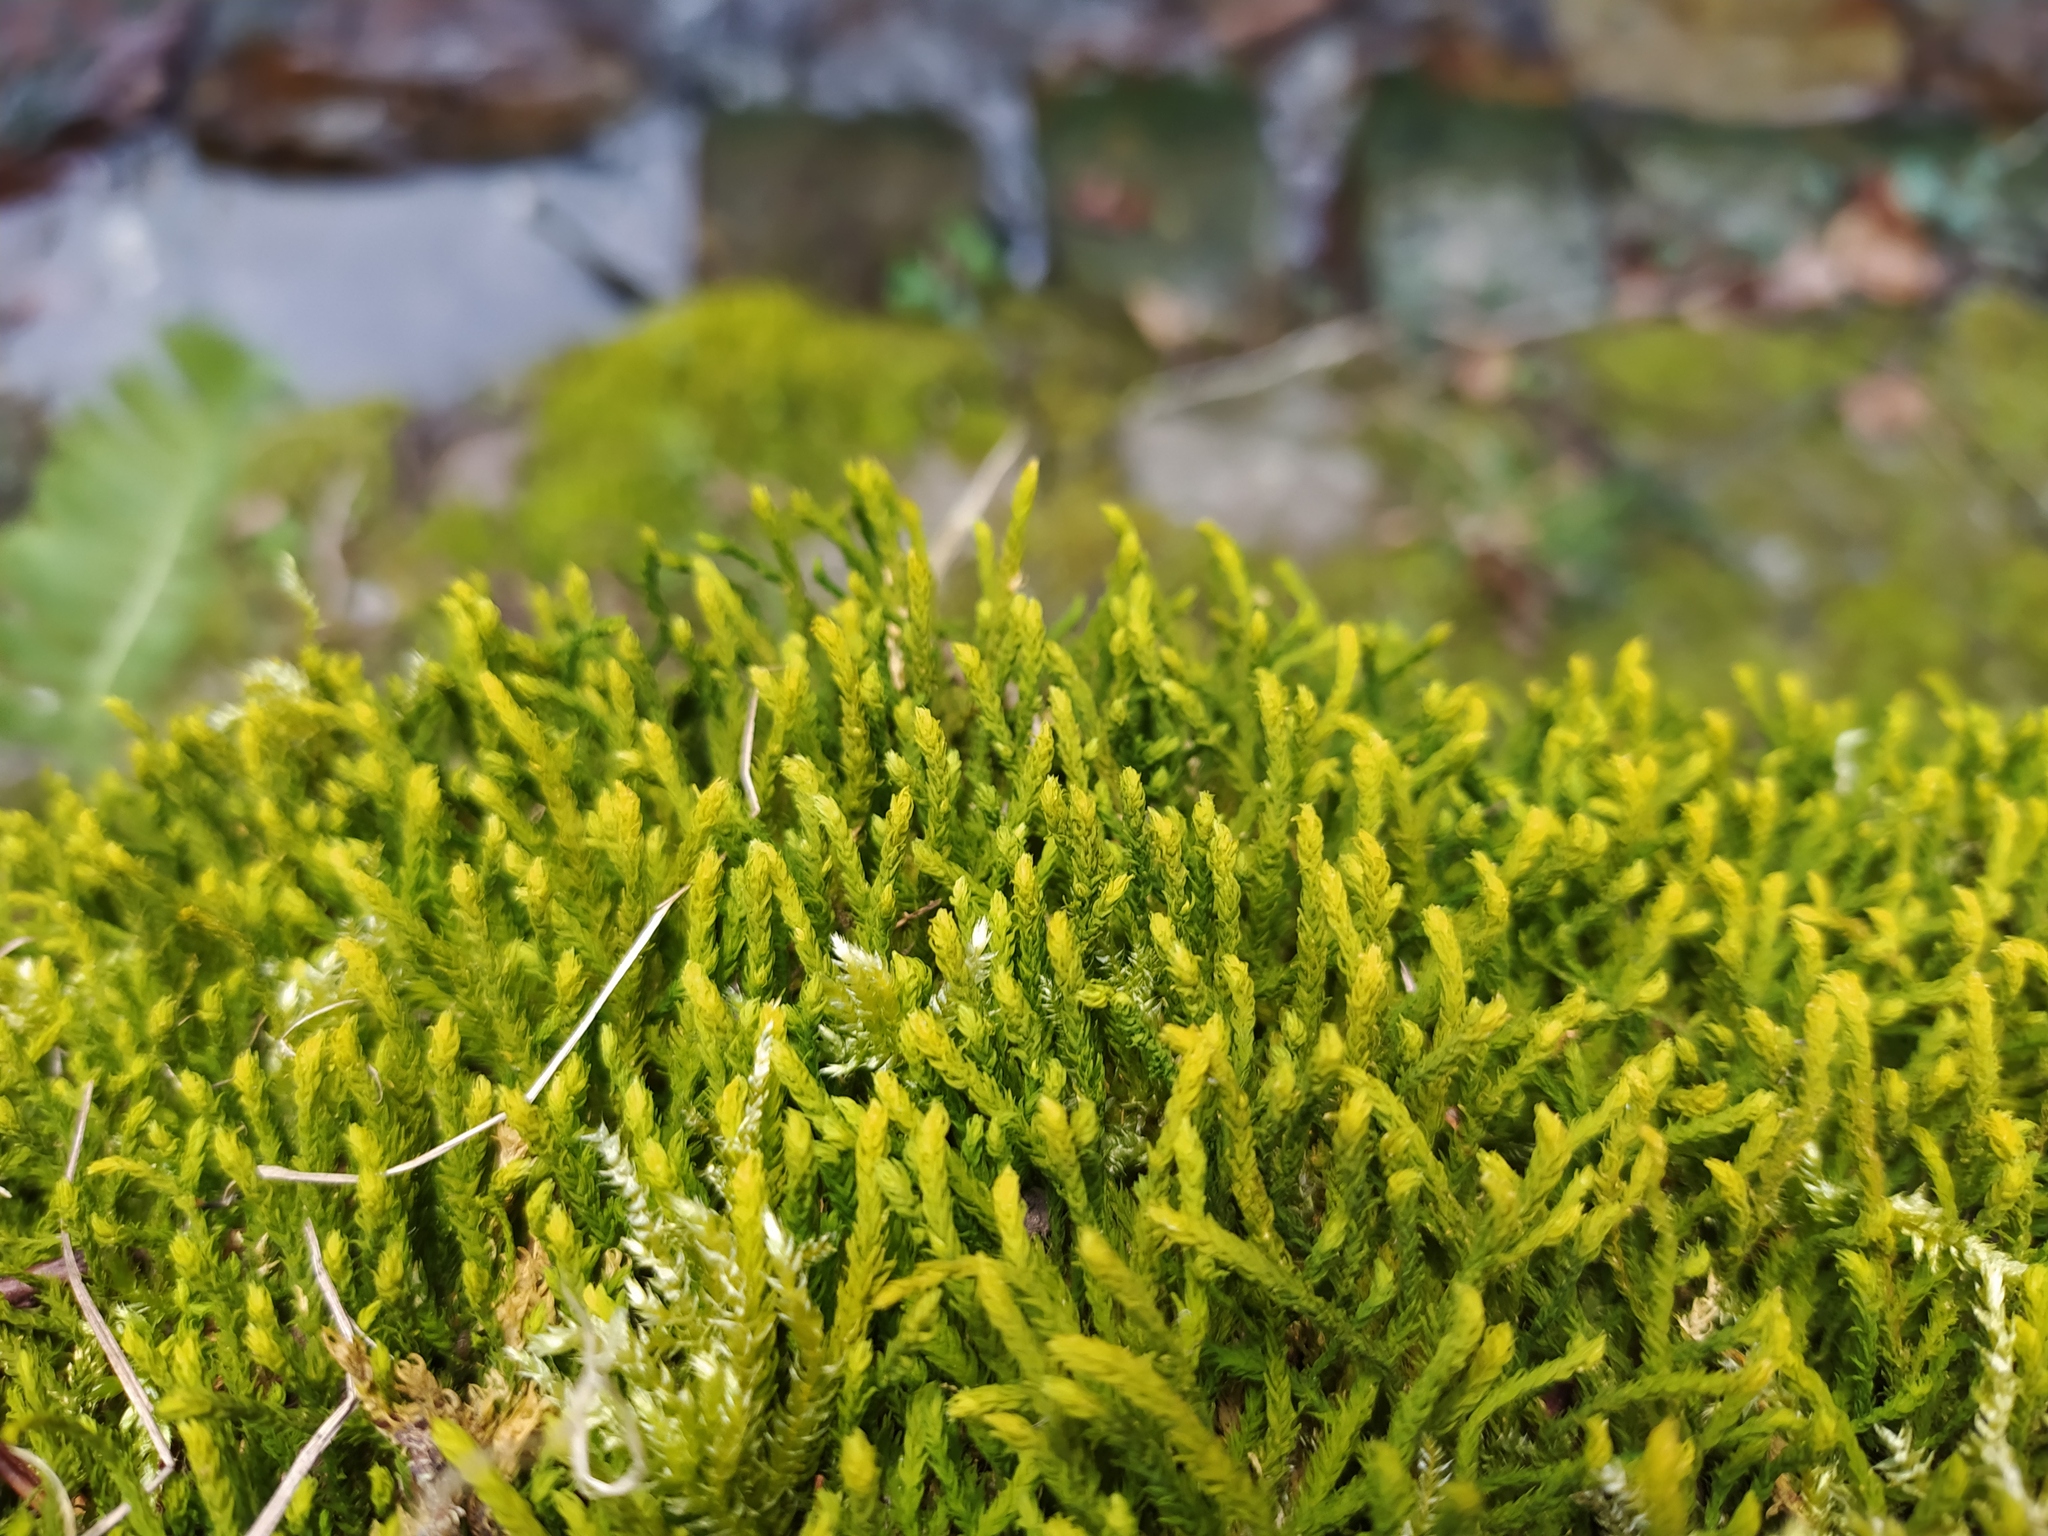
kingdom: Plantae
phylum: Bryophyta
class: Bryopsida
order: Hypnales
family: Anomodontaceae
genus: Anomodon
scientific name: Anomodon viticulosus
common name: Tall anomodon
